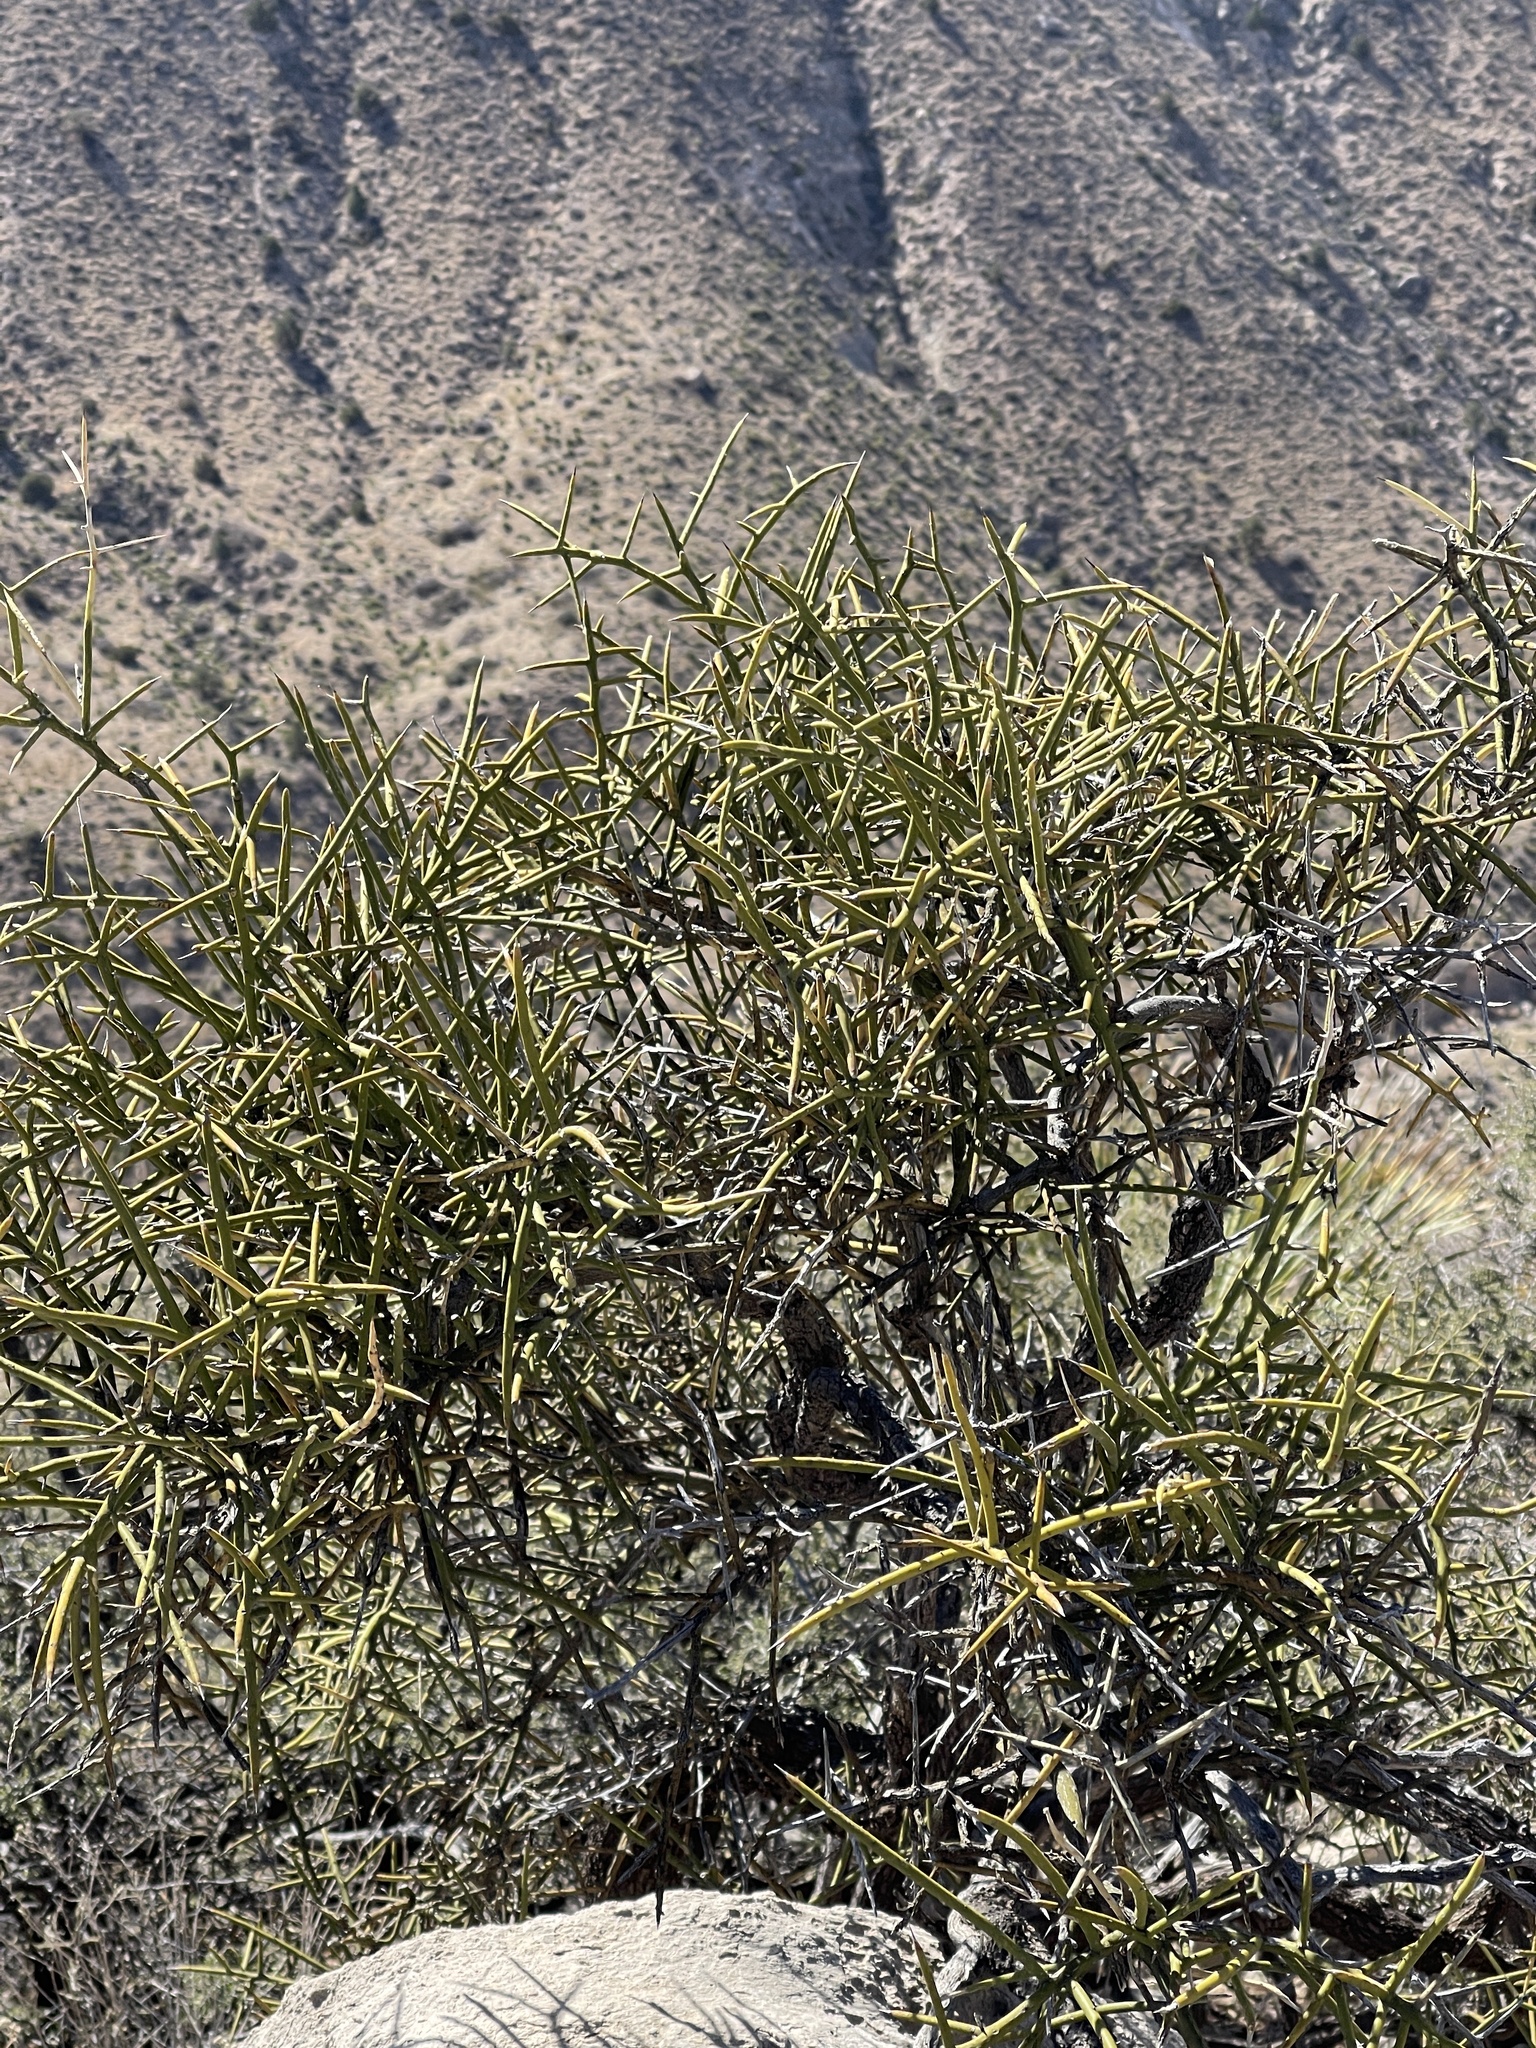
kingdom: Plantae
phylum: Tracheophyta
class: Magnoliopsida
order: Brassicales
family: Koeberliniaceae
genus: Koeberlinia
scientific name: Koeberlinia spinosa
